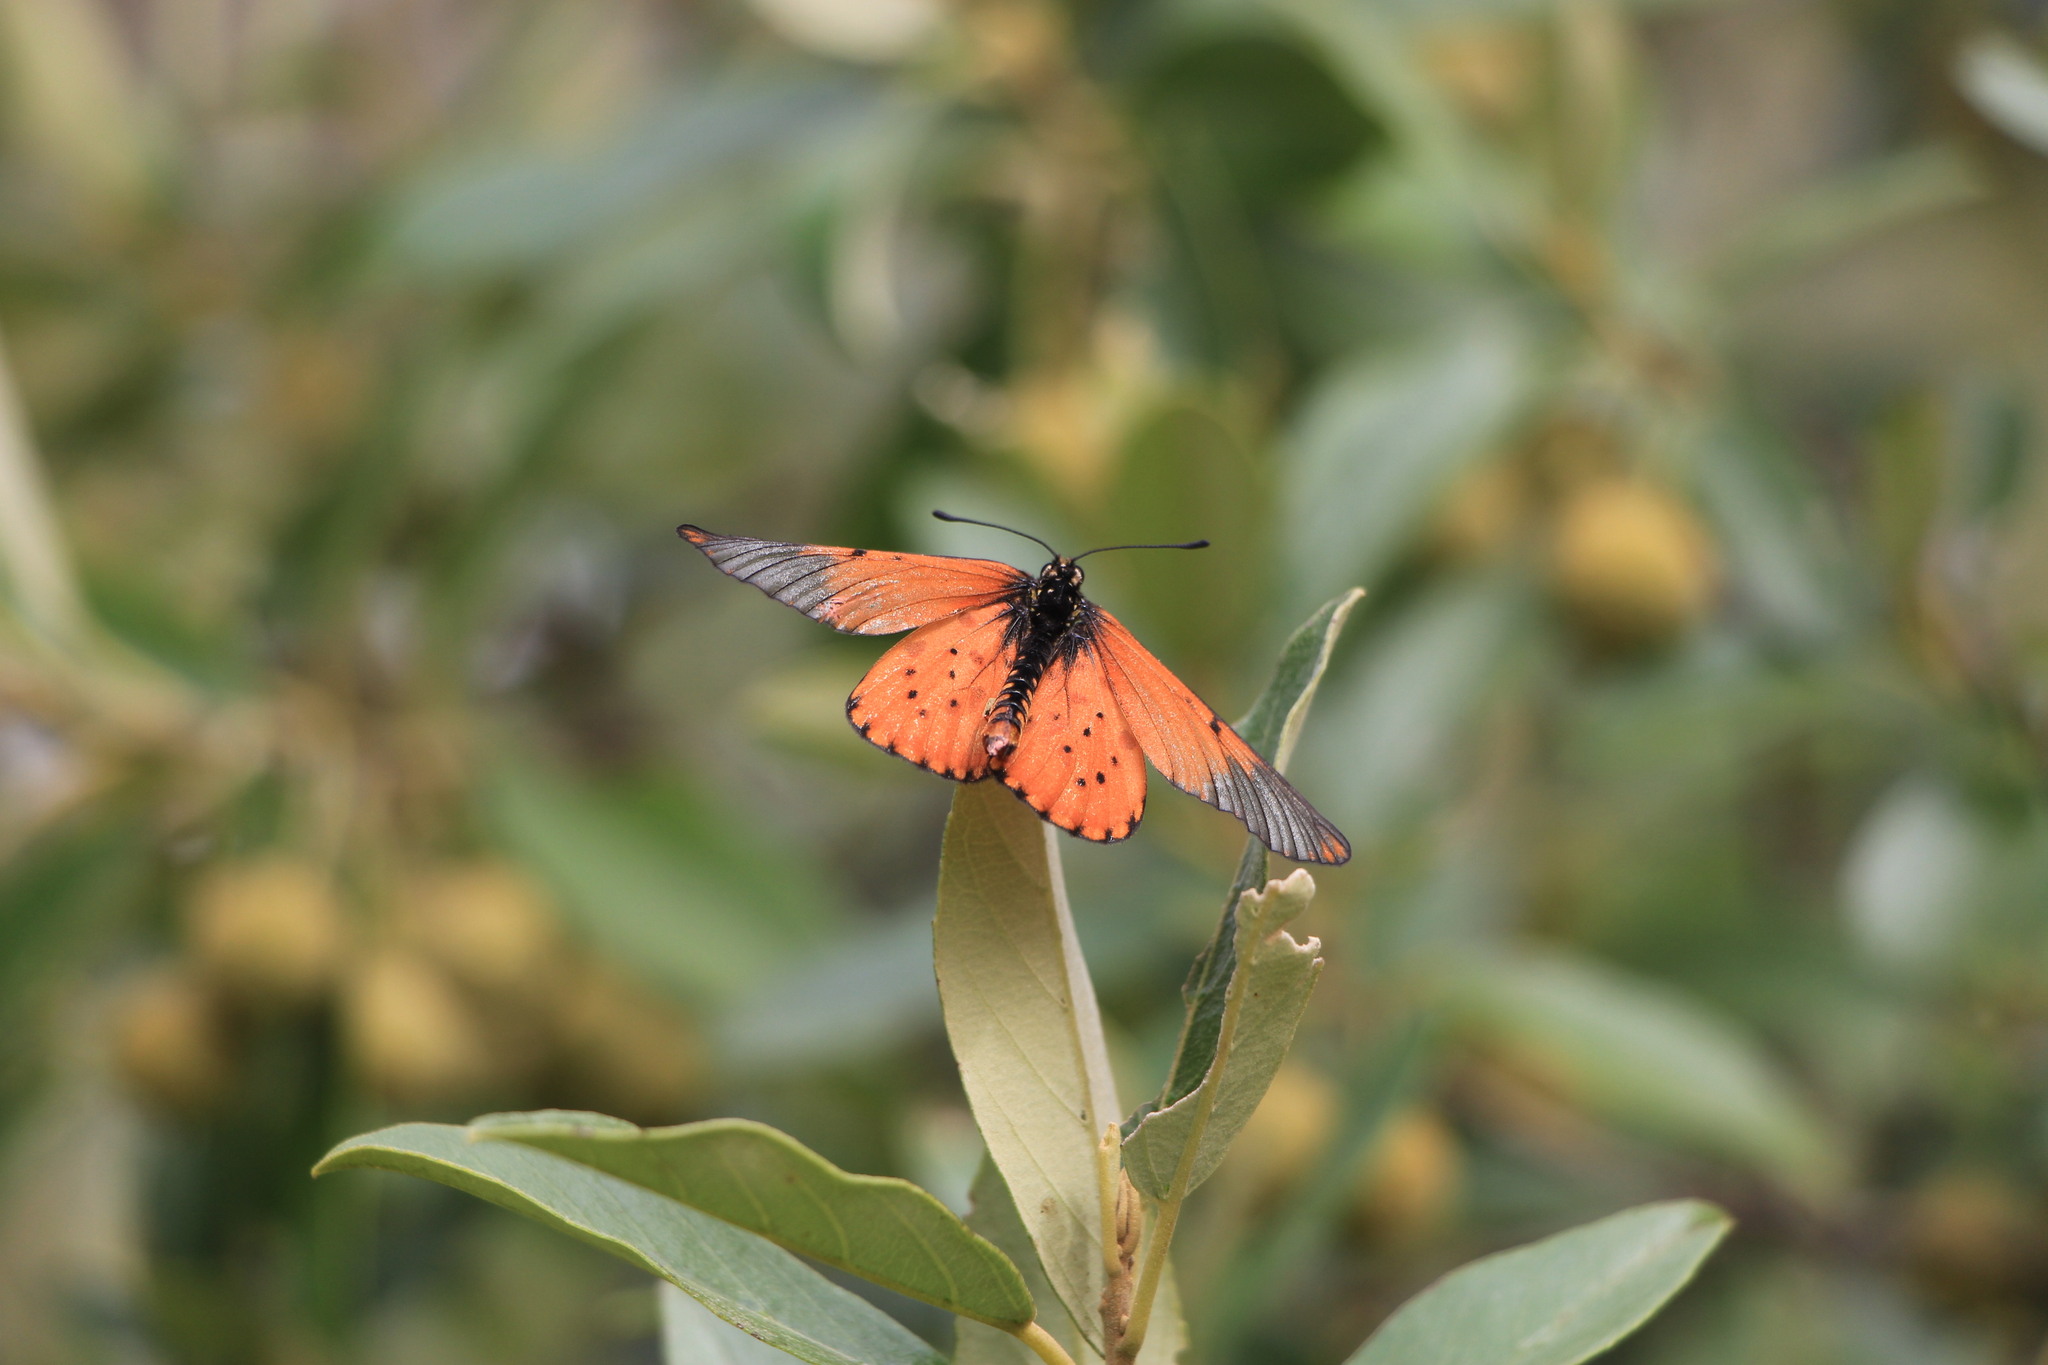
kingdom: Animalia
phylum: Arthropoda
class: Insecta
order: Lepidoptera
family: Nymphalidae
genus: Acraea
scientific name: Acraea horta
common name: Garden acraea
